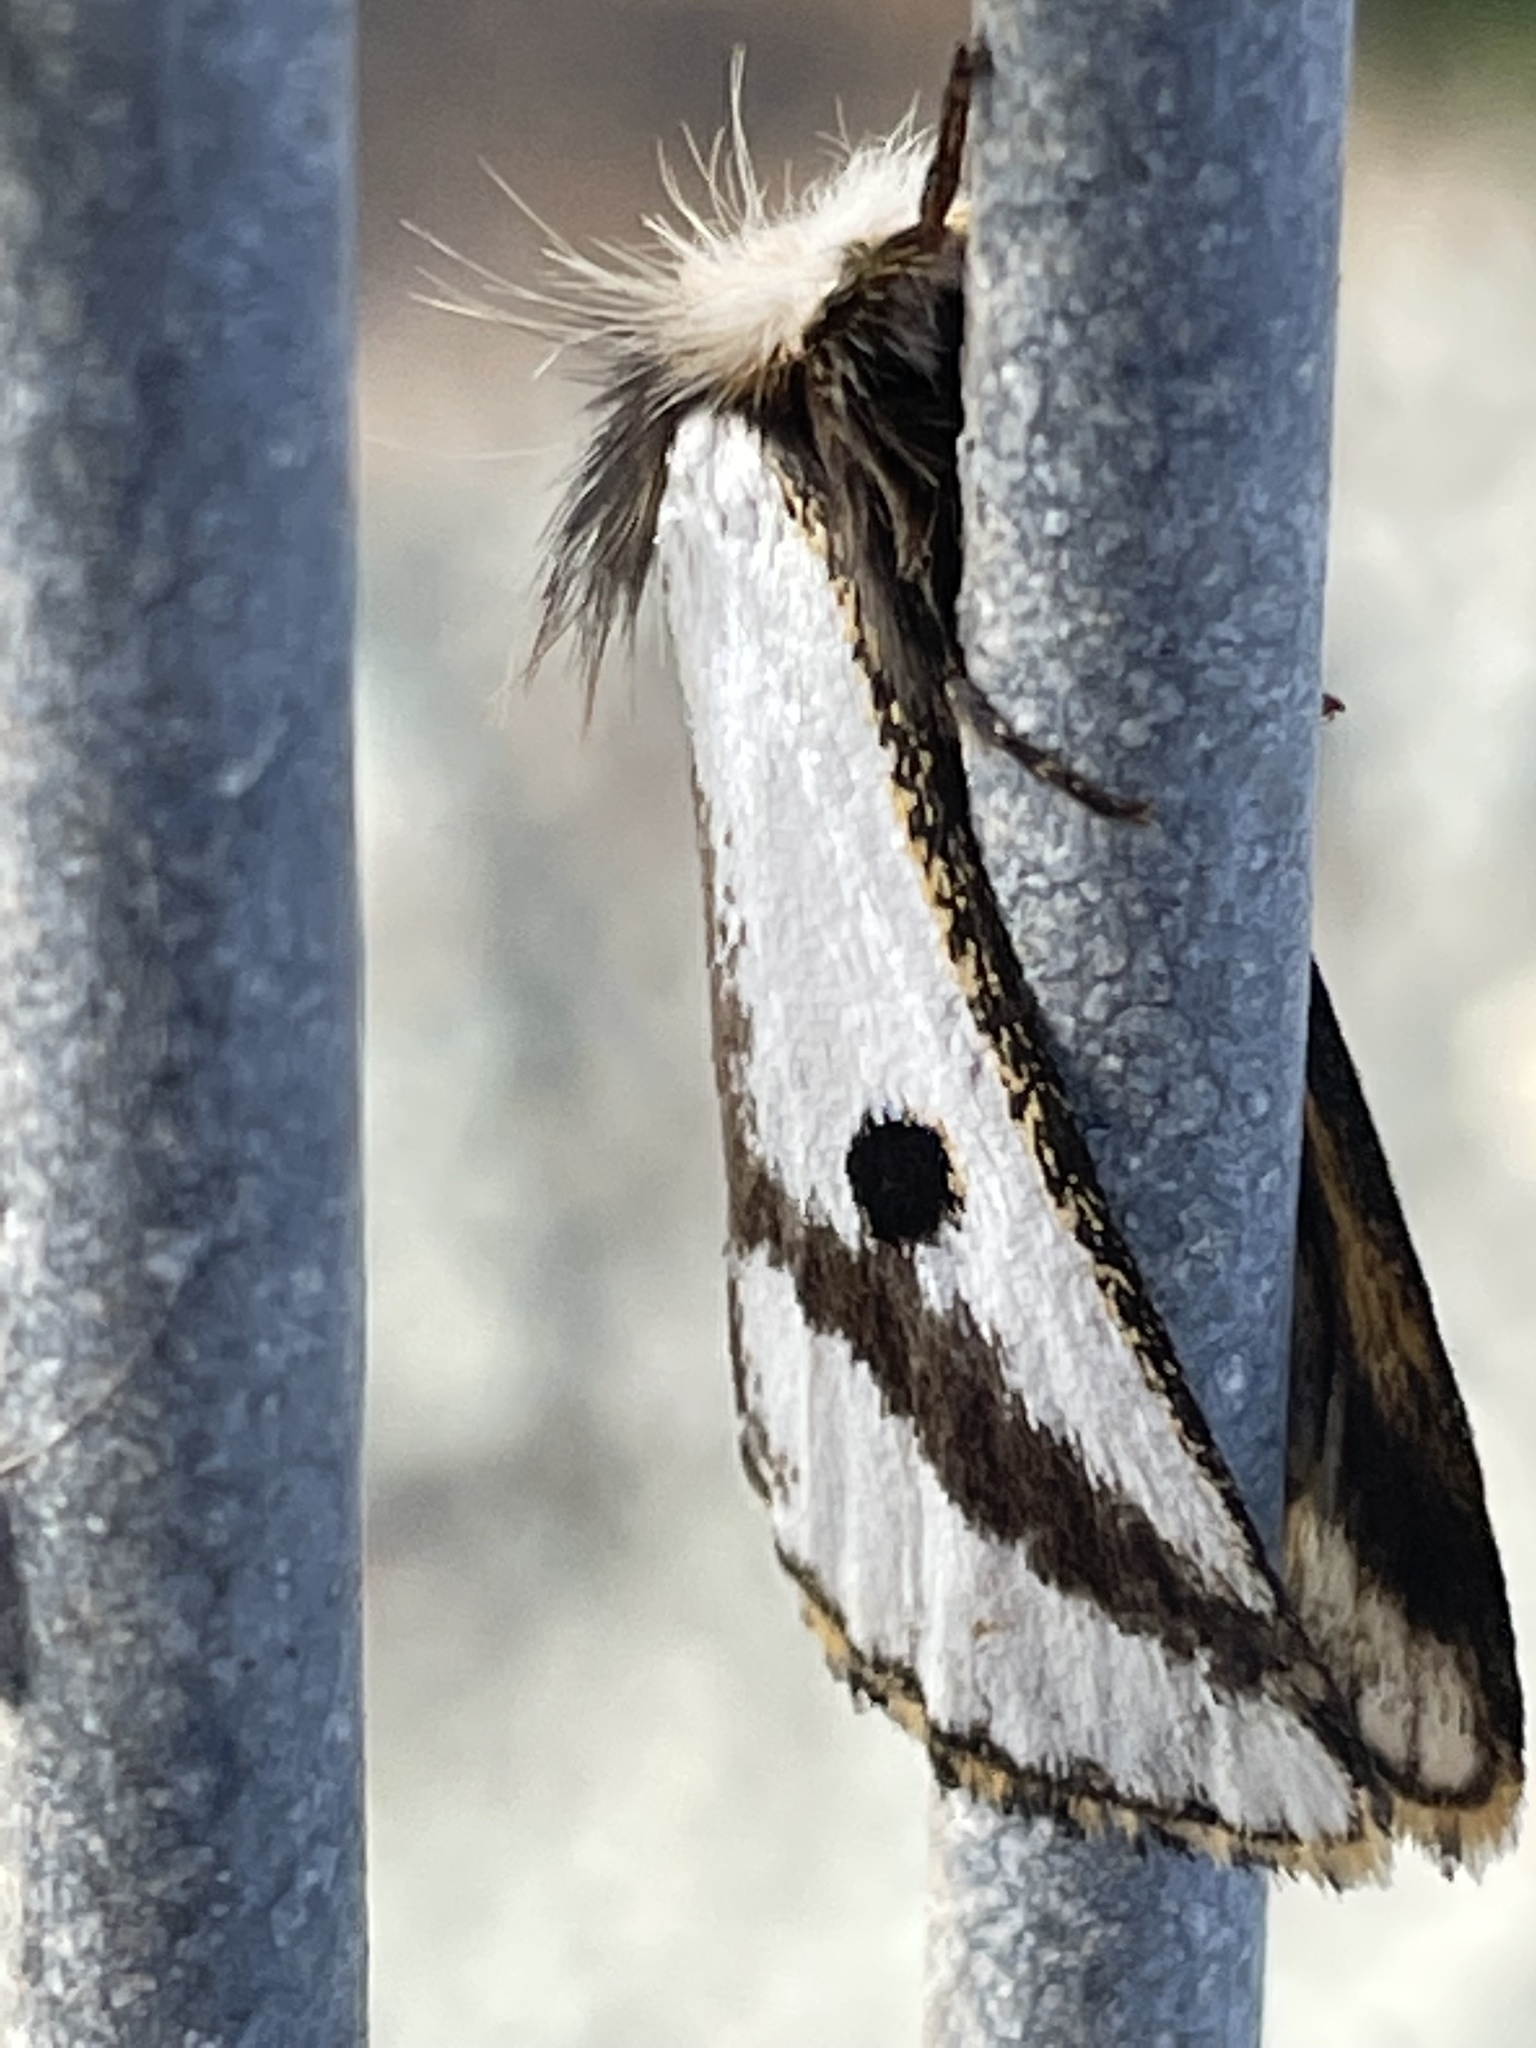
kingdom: Animalia
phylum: Arthropoda
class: Insecta
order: Lepidoptera
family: Notodontidae
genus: Epicoma
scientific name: Epicoma melanospila
